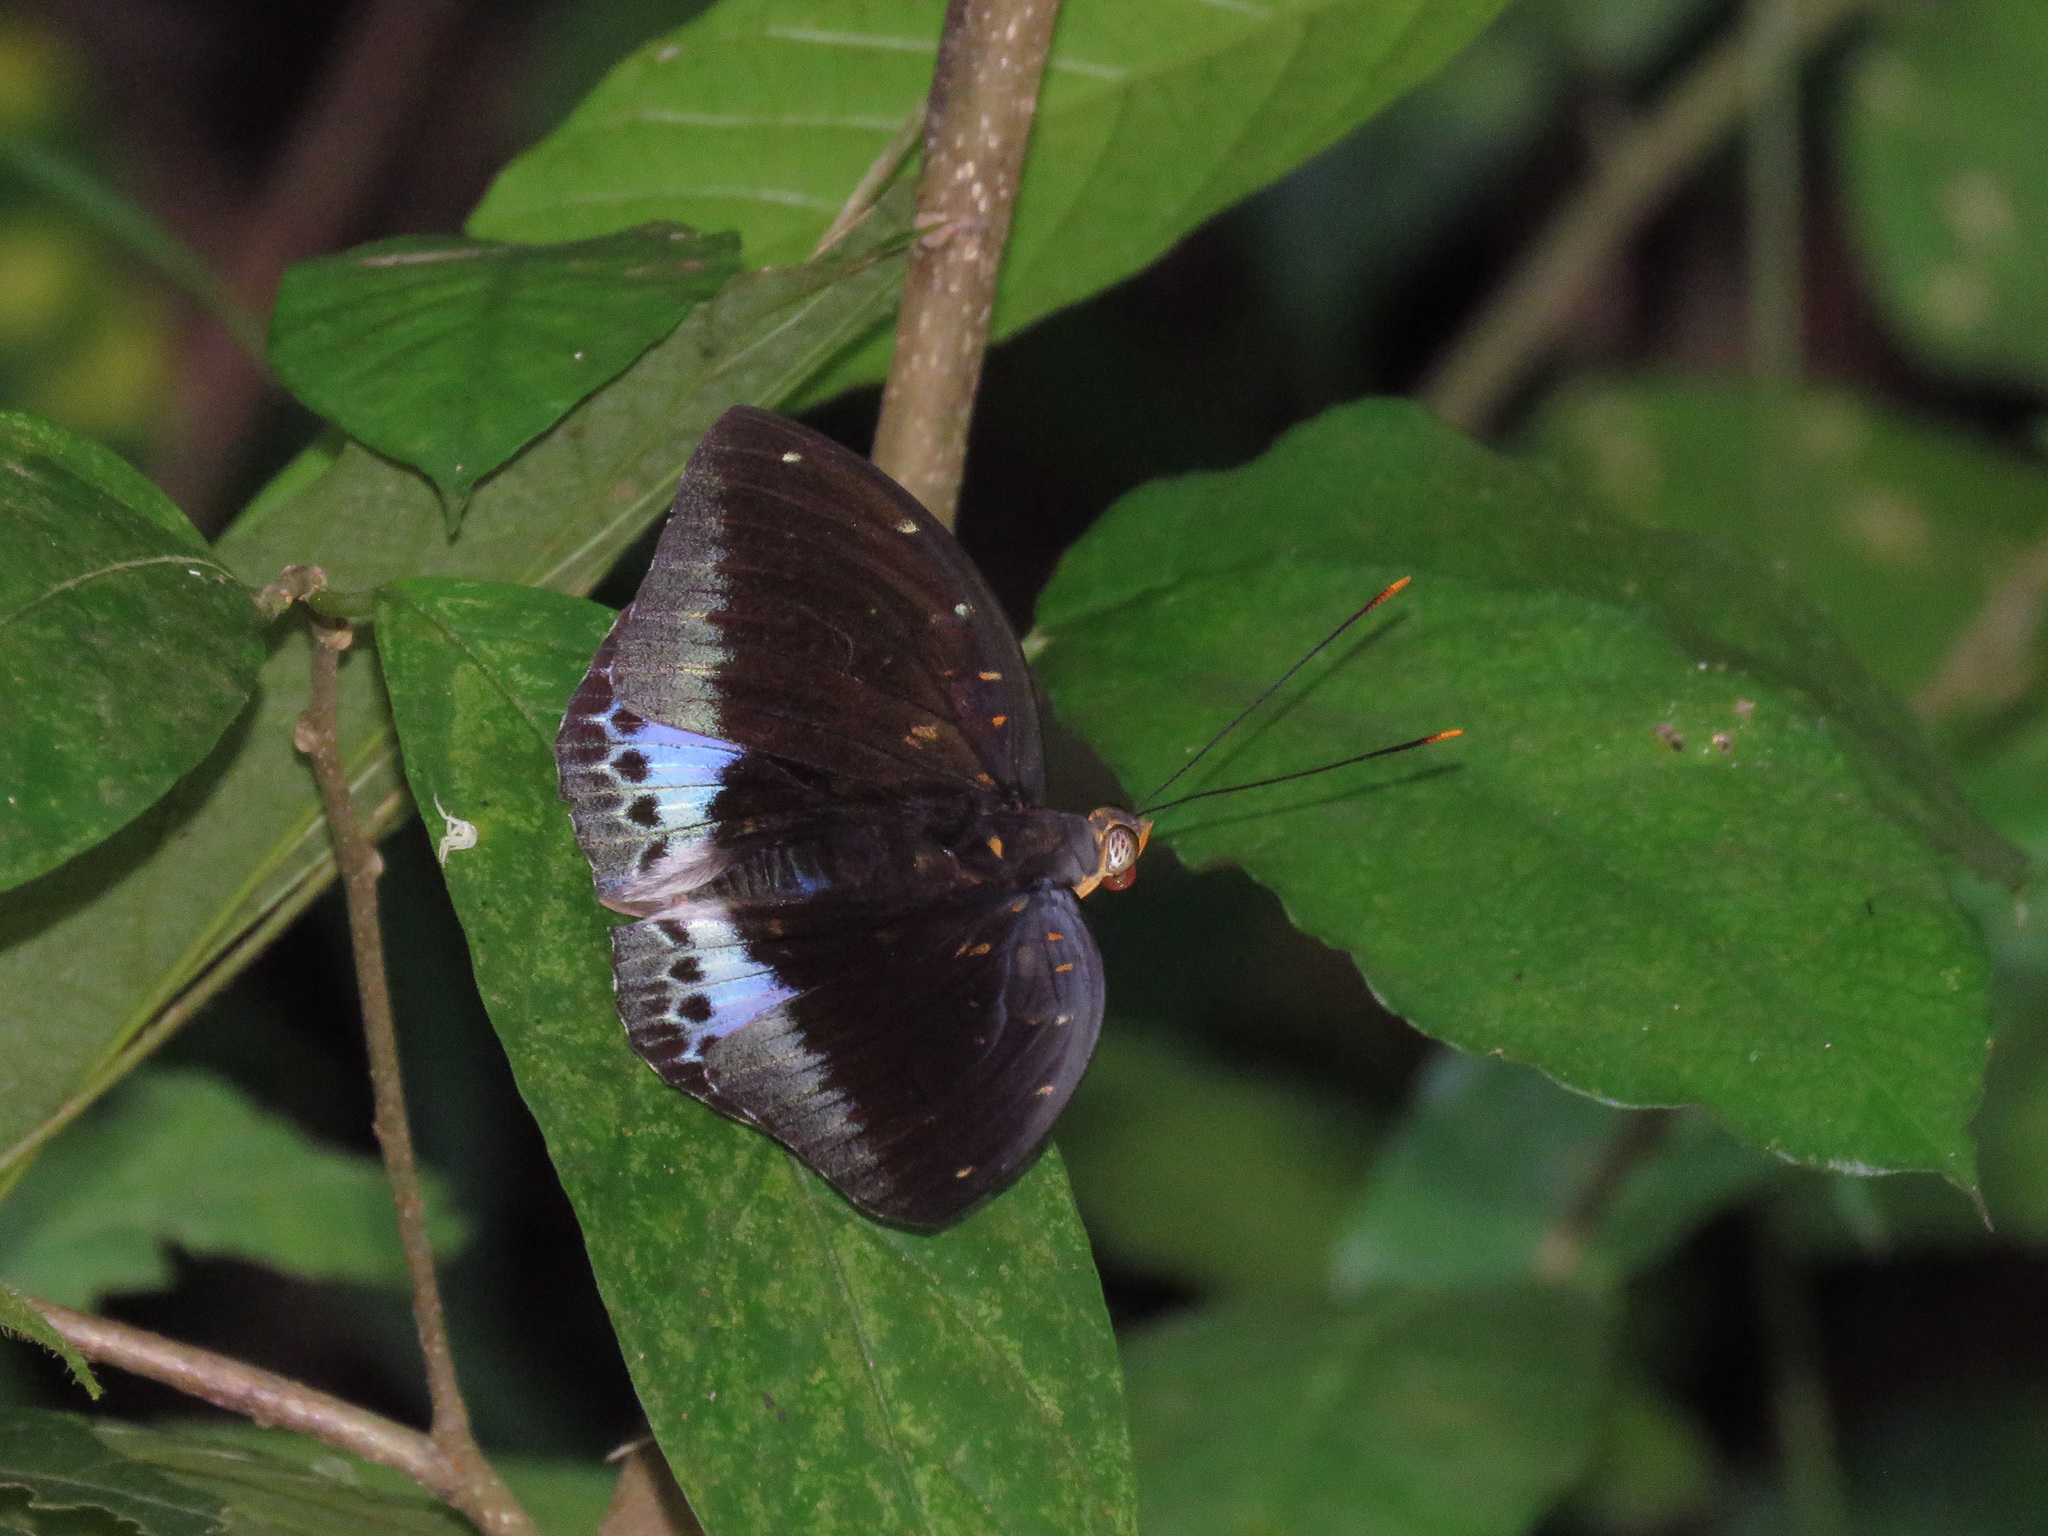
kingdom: Animalia
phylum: Arthropoda
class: Insecta
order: Lepidoptera
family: Nymphalidae
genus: Lexias
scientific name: Lexias pardalis
